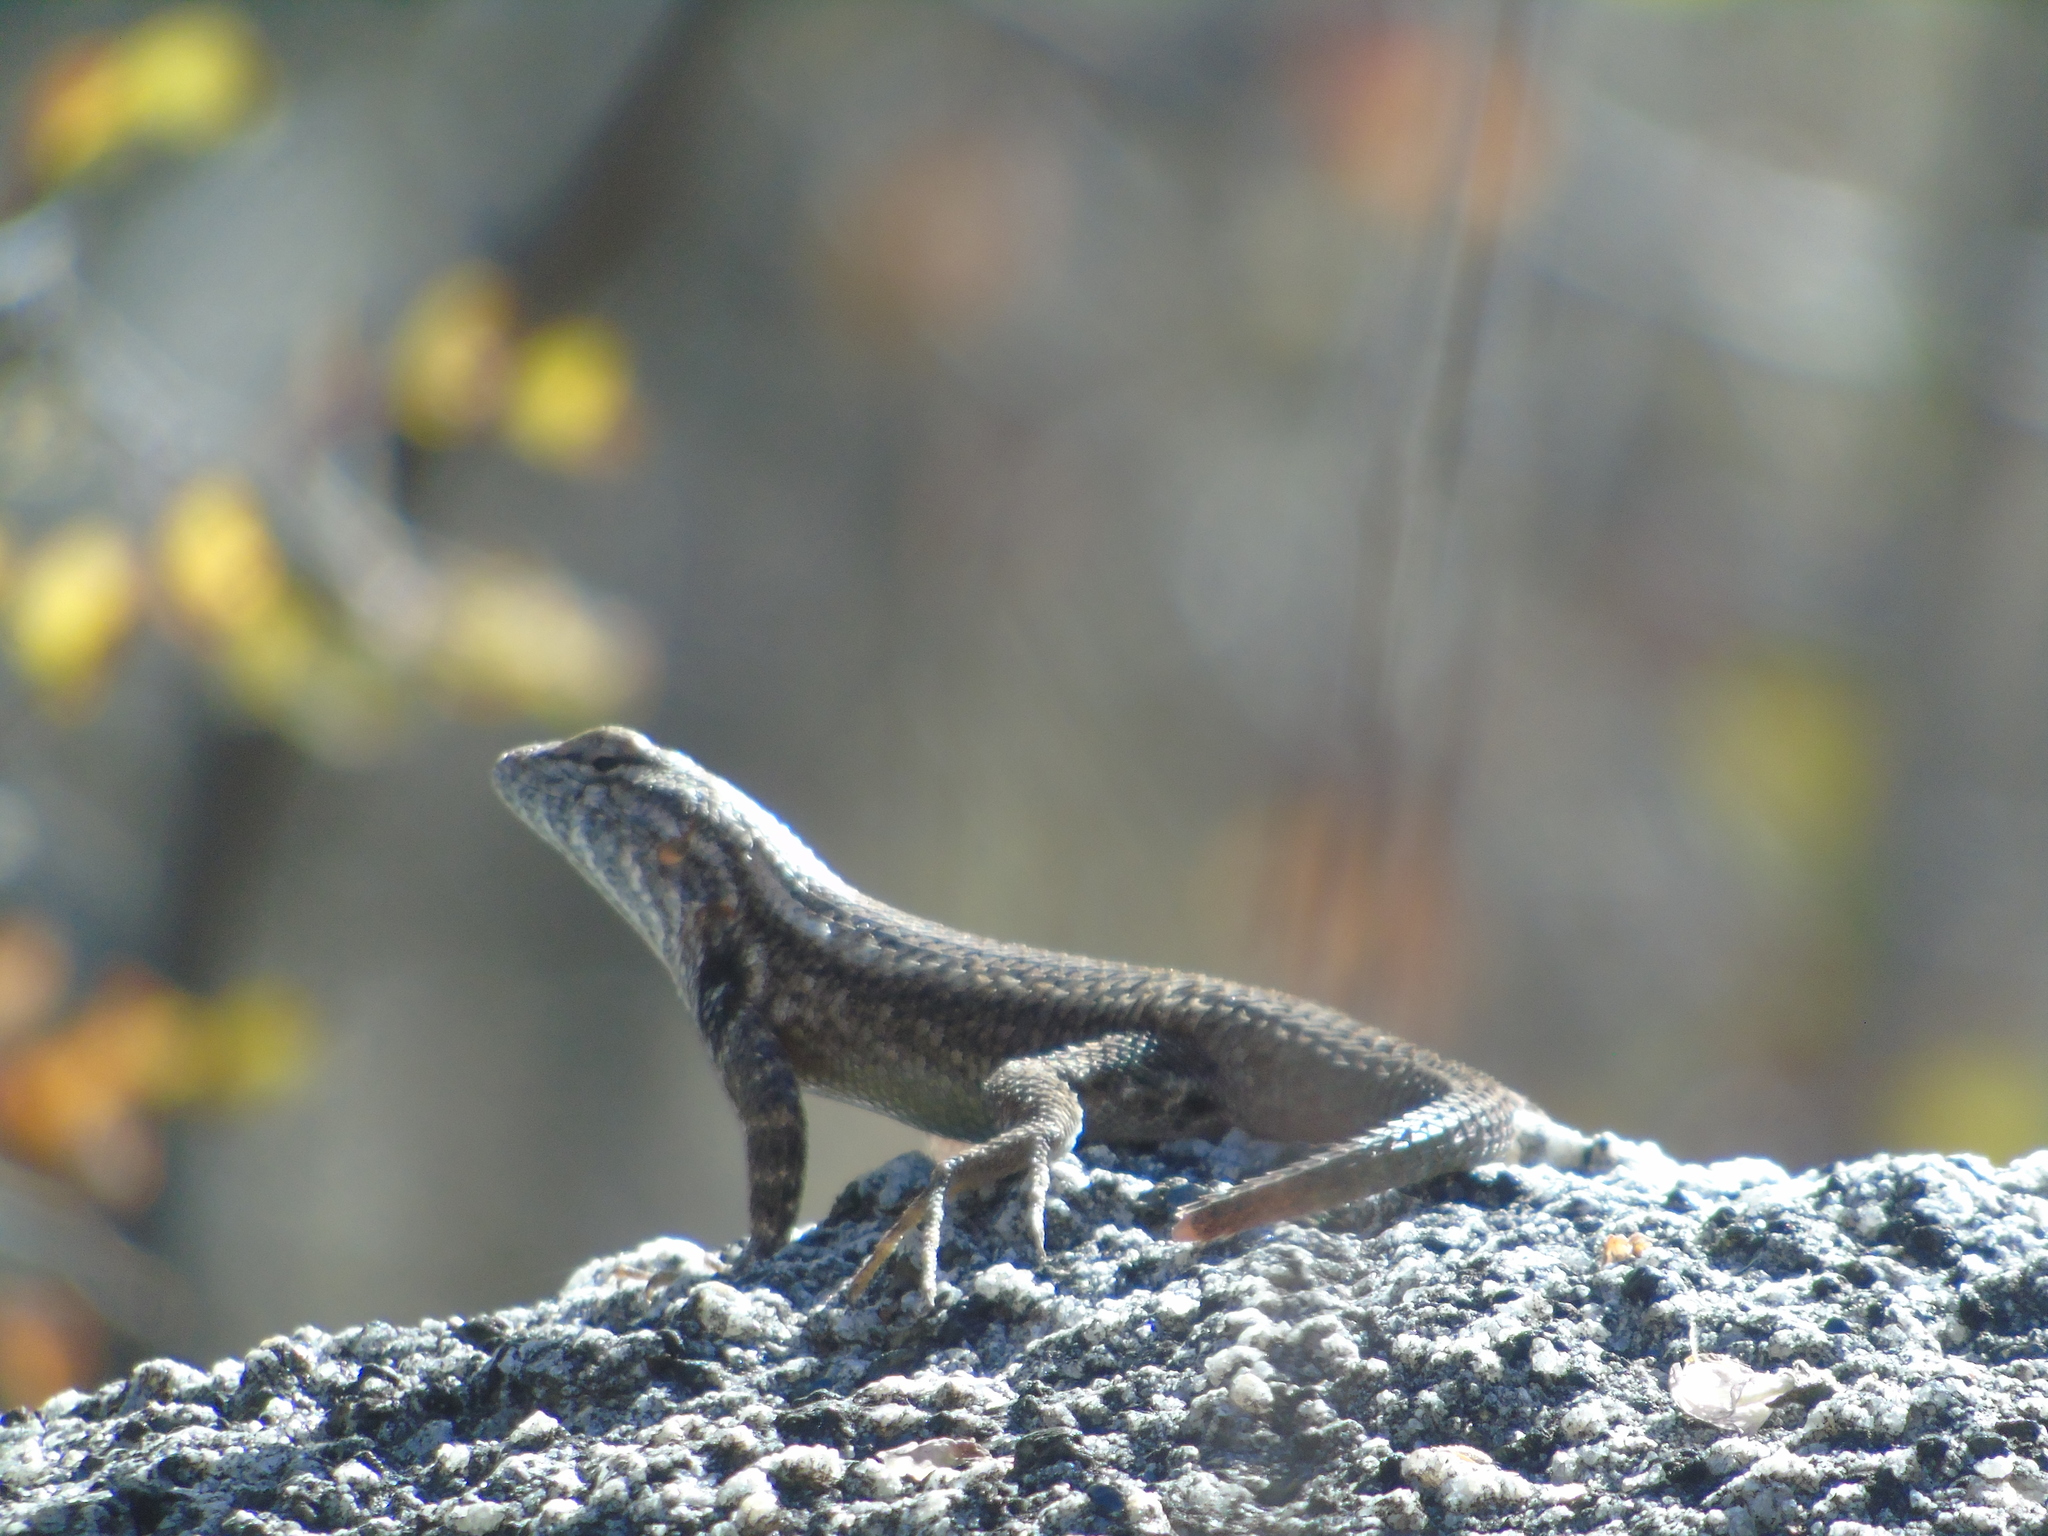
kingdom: Animalia
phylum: Chordata
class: Squamata
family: Phrynosomatidae
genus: Sceloporus
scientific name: Sceloporus licki
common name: Cape arboreal spiny lizard
